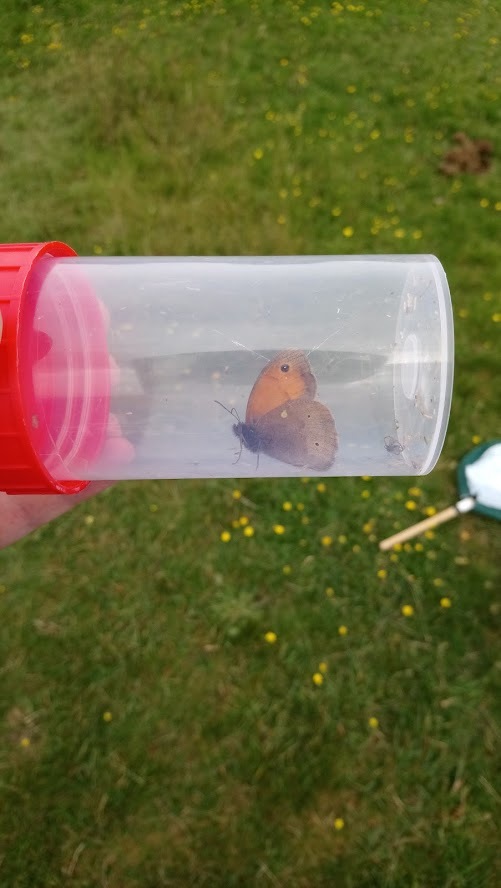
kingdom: Animalia
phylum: Arthropoda
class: Insecta
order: Lepidoptera
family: Nymphalidae
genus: Maniola
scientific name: Maniola jurtina
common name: Meadow brown
